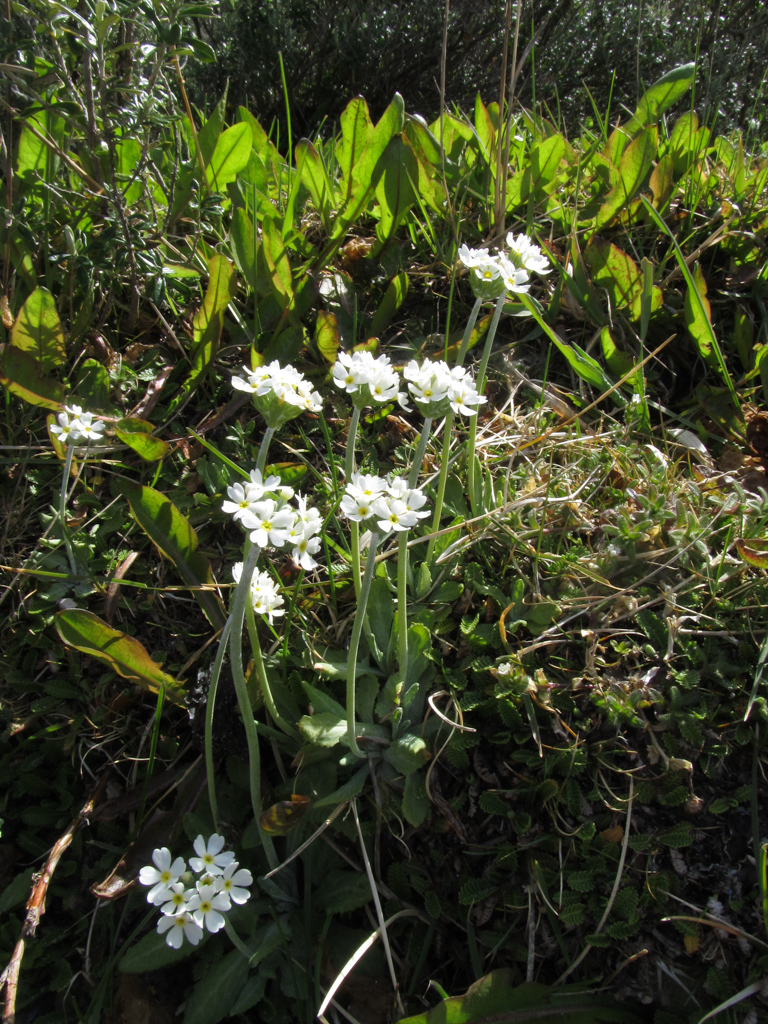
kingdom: Plantae
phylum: Tracheophyta
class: Magnoliopsida
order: Ericales
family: Primulaceae
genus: Primula
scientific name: Primula magellanica
